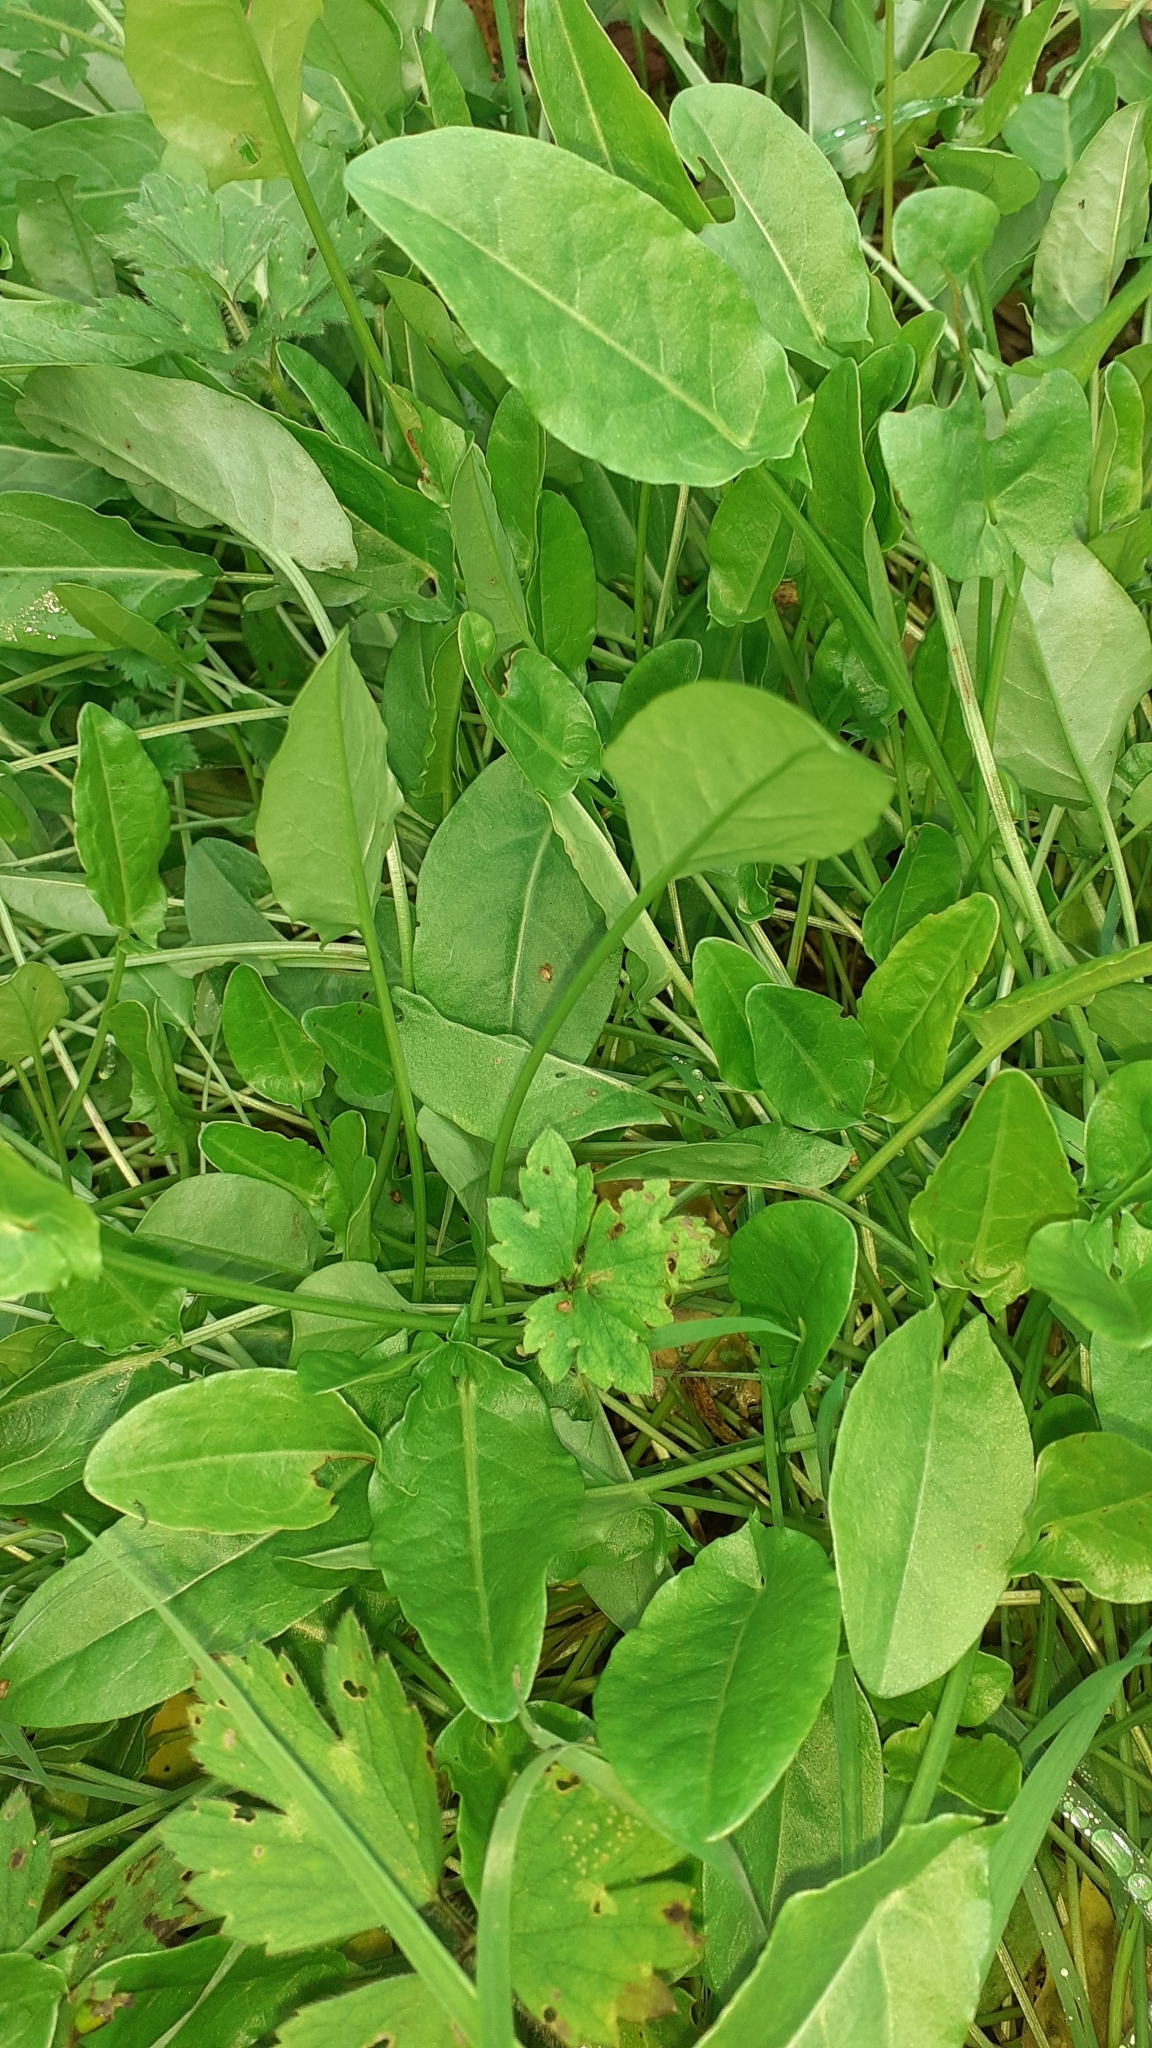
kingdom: Plantae
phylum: Tracheophyta
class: Magnoliopsida
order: Caryophyllales
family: Polygonaceae
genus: Rumex
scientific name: Rumex acetosa
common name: Garden sorrel
